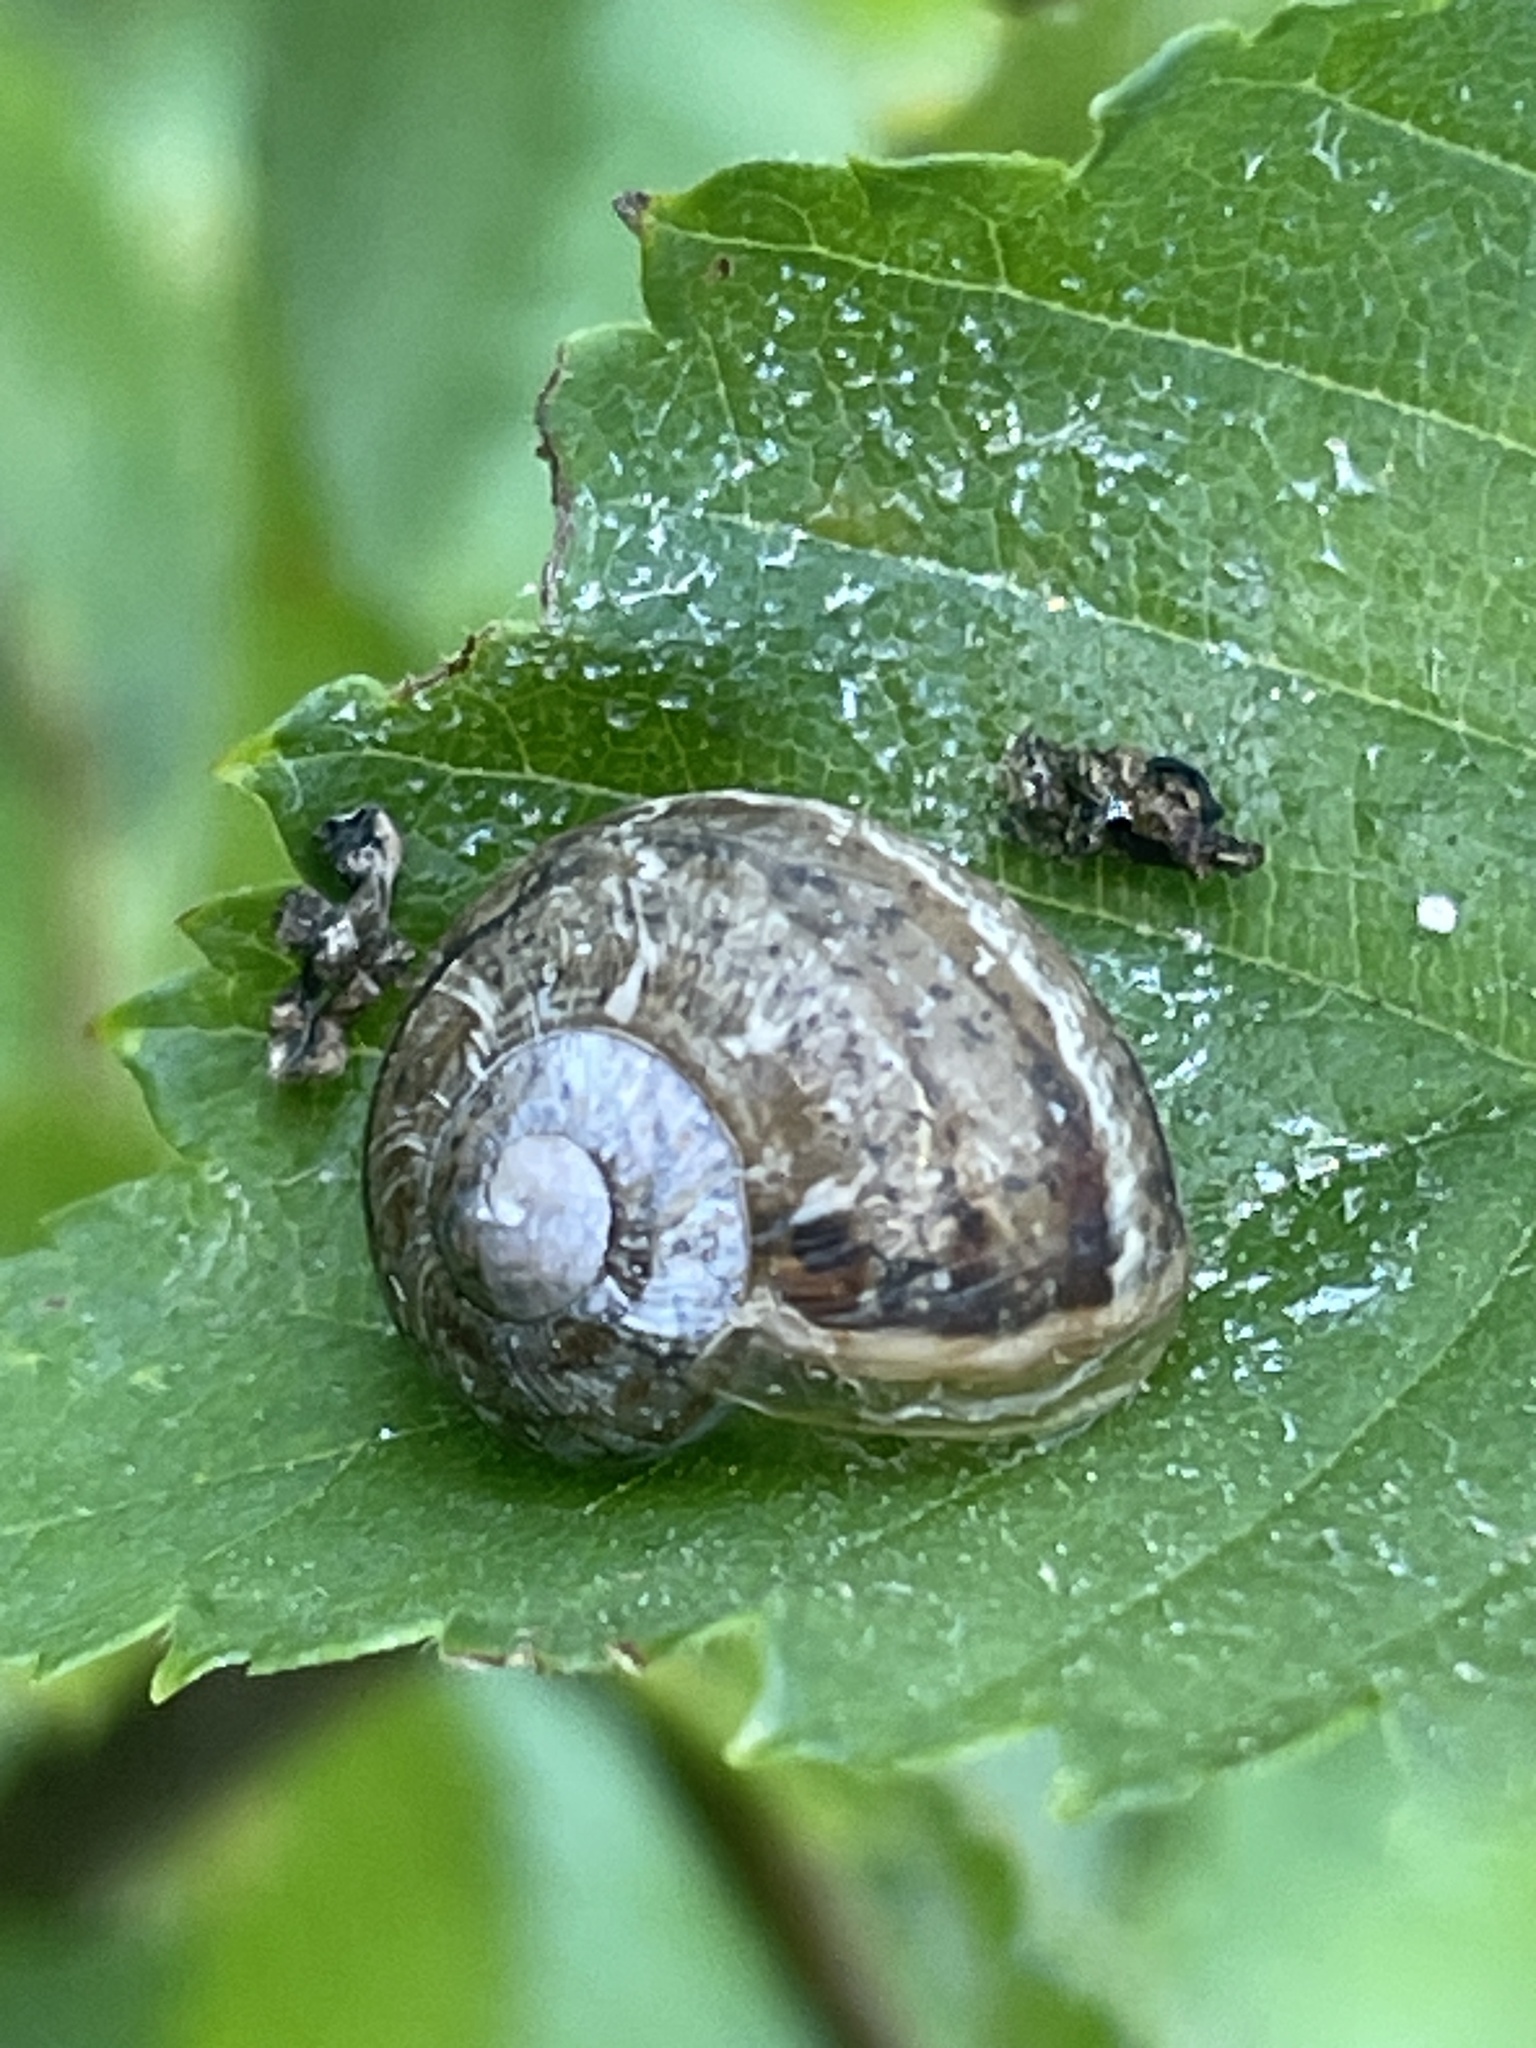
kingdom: Animalia
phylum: Mollusca
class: Gastropoda
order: Stylommatophora
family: Helicidae
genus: Cornu
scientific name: Cornu aspersum
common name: Brown garden snail
